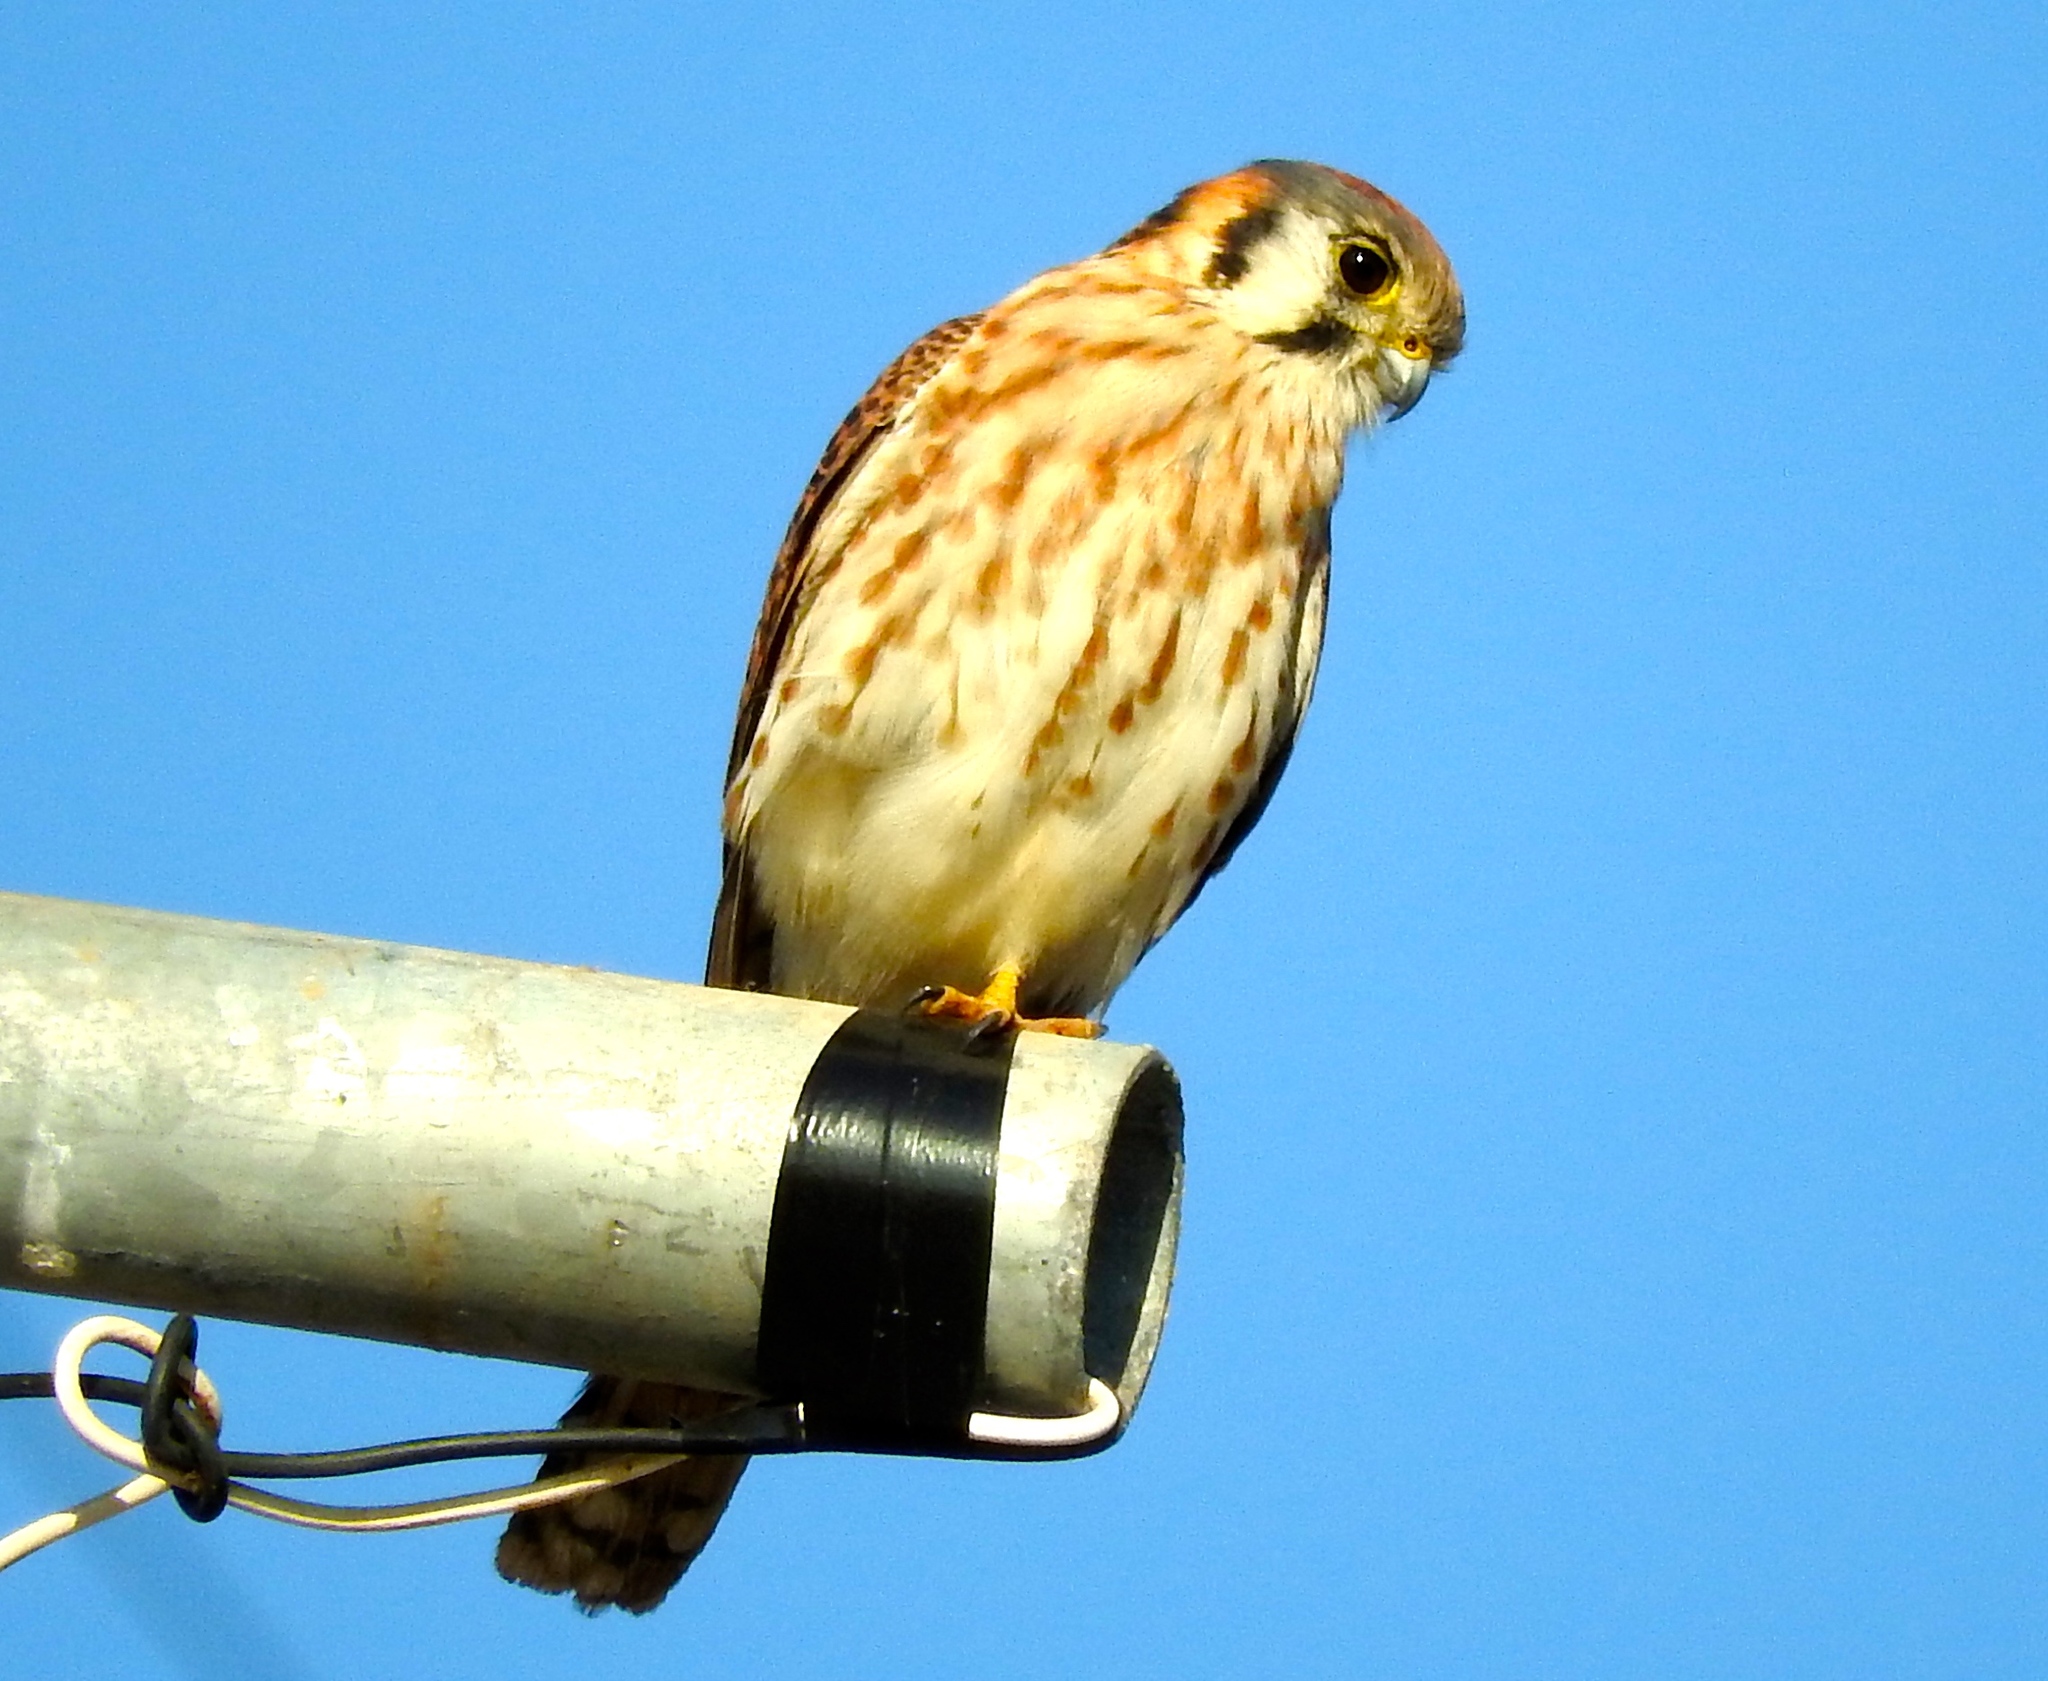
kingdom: Animalia
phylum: Chordata
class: Aves
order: Falconiformes
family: Falconidae
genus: Falco
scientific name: Falco sparverius
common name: American kestrel
